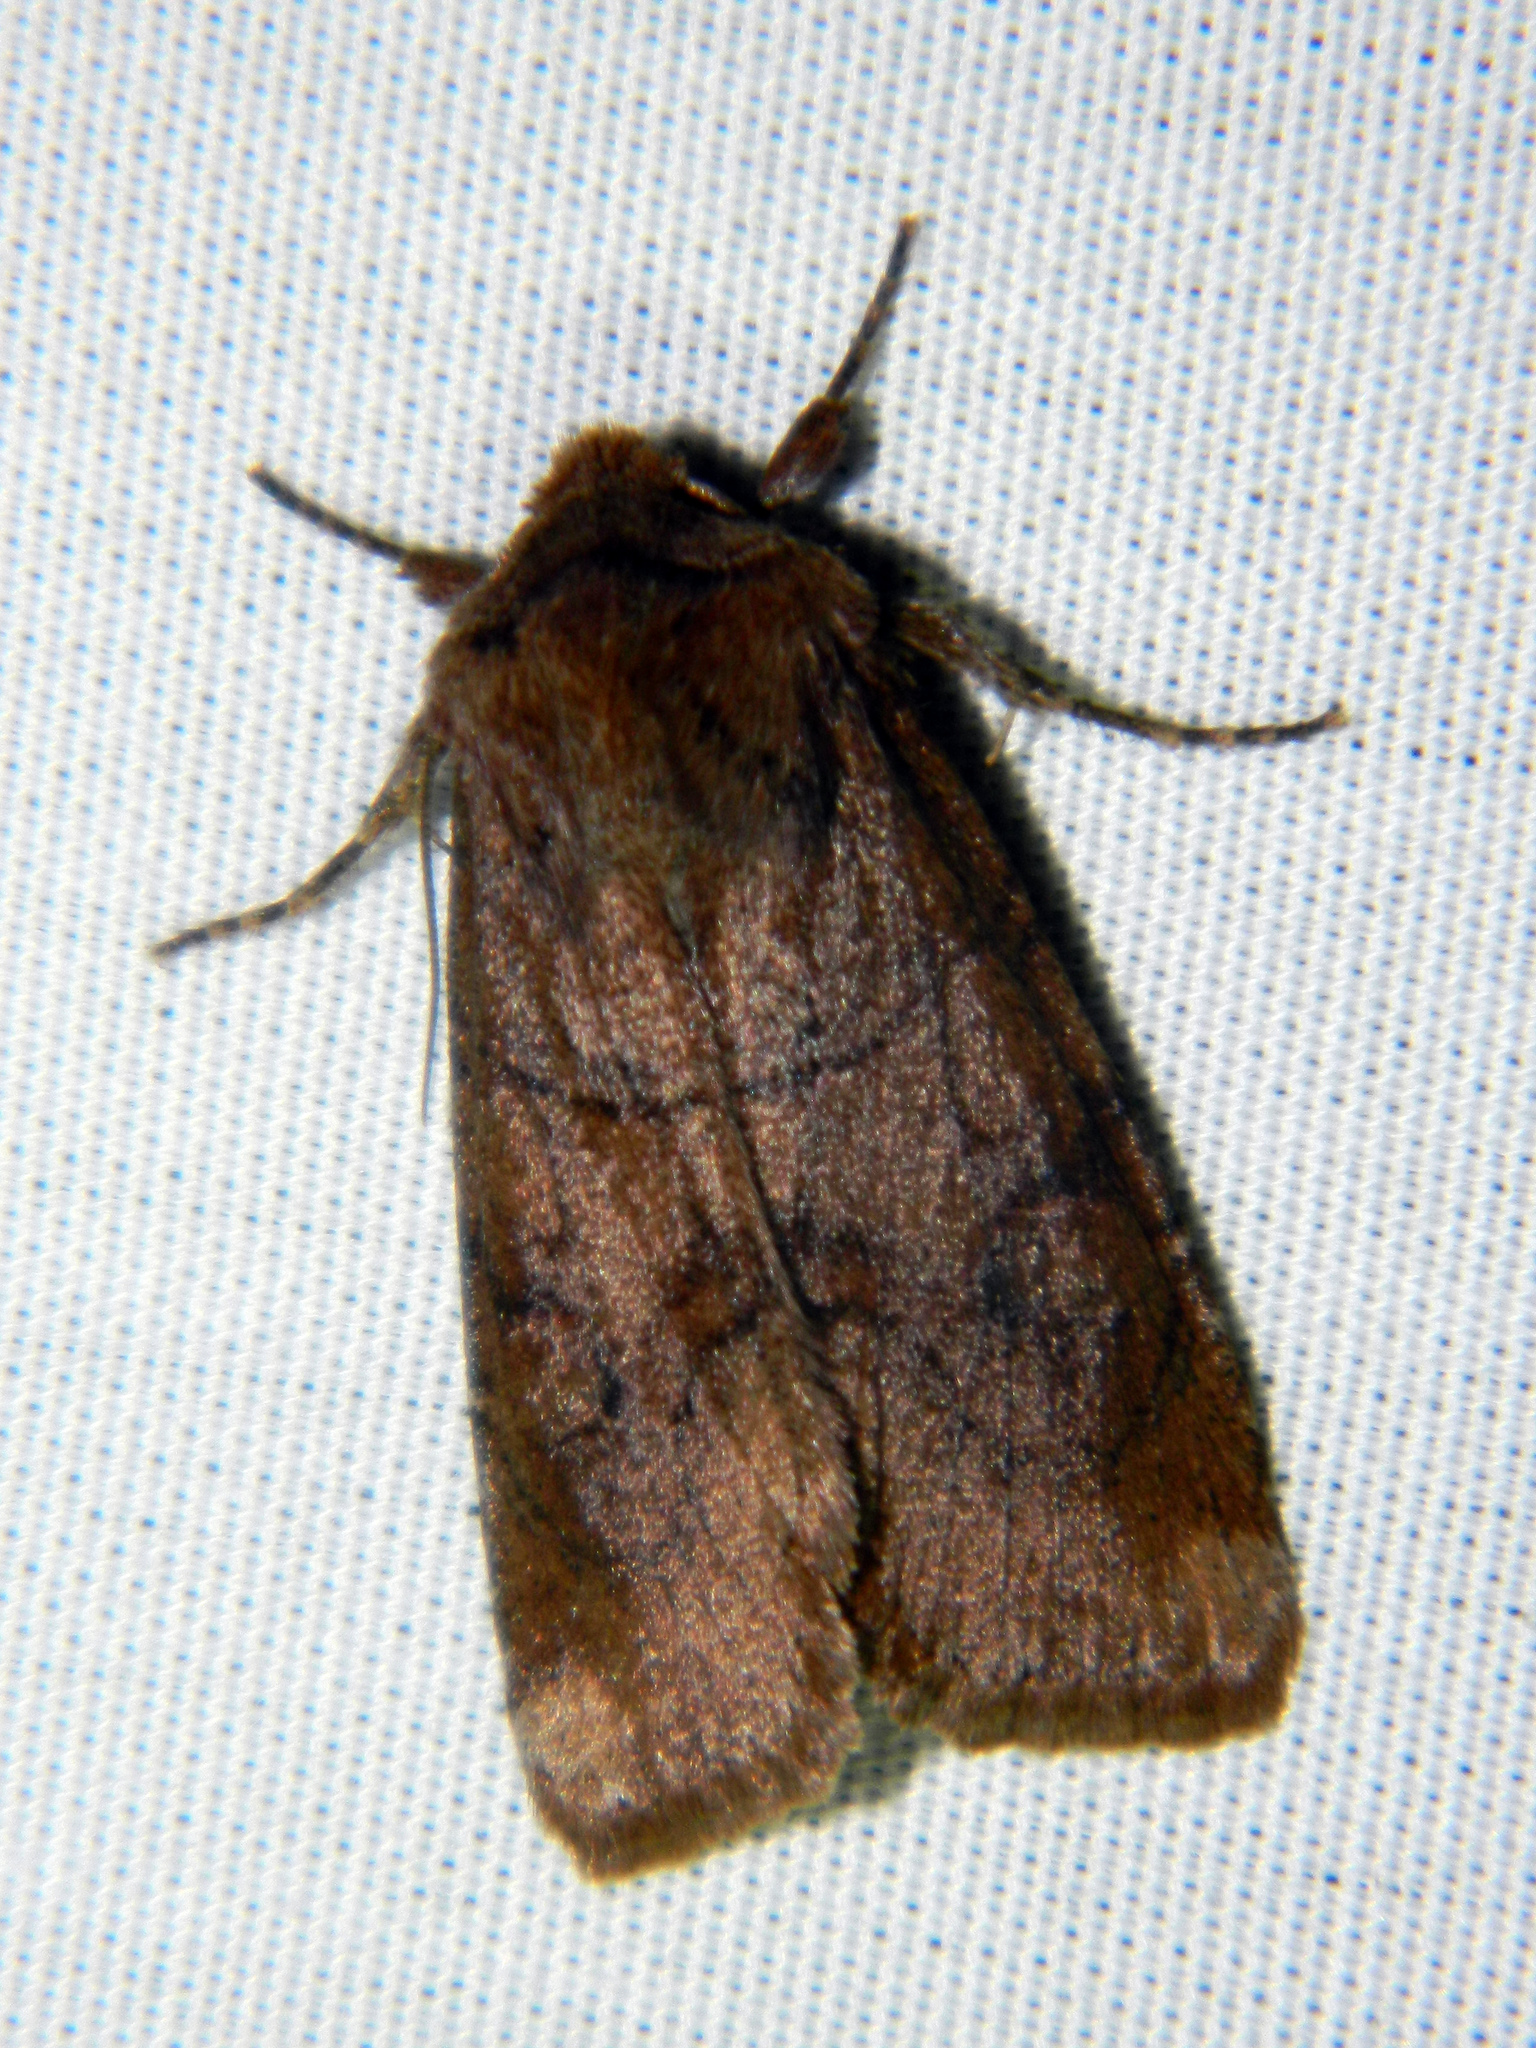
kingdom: Animalia
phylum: Arthropoda
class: Insecta
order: Lepidoptera
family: Noctuidae
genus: Crocigrapha
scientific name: Crocigrapha normani
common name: Norman's quaker
